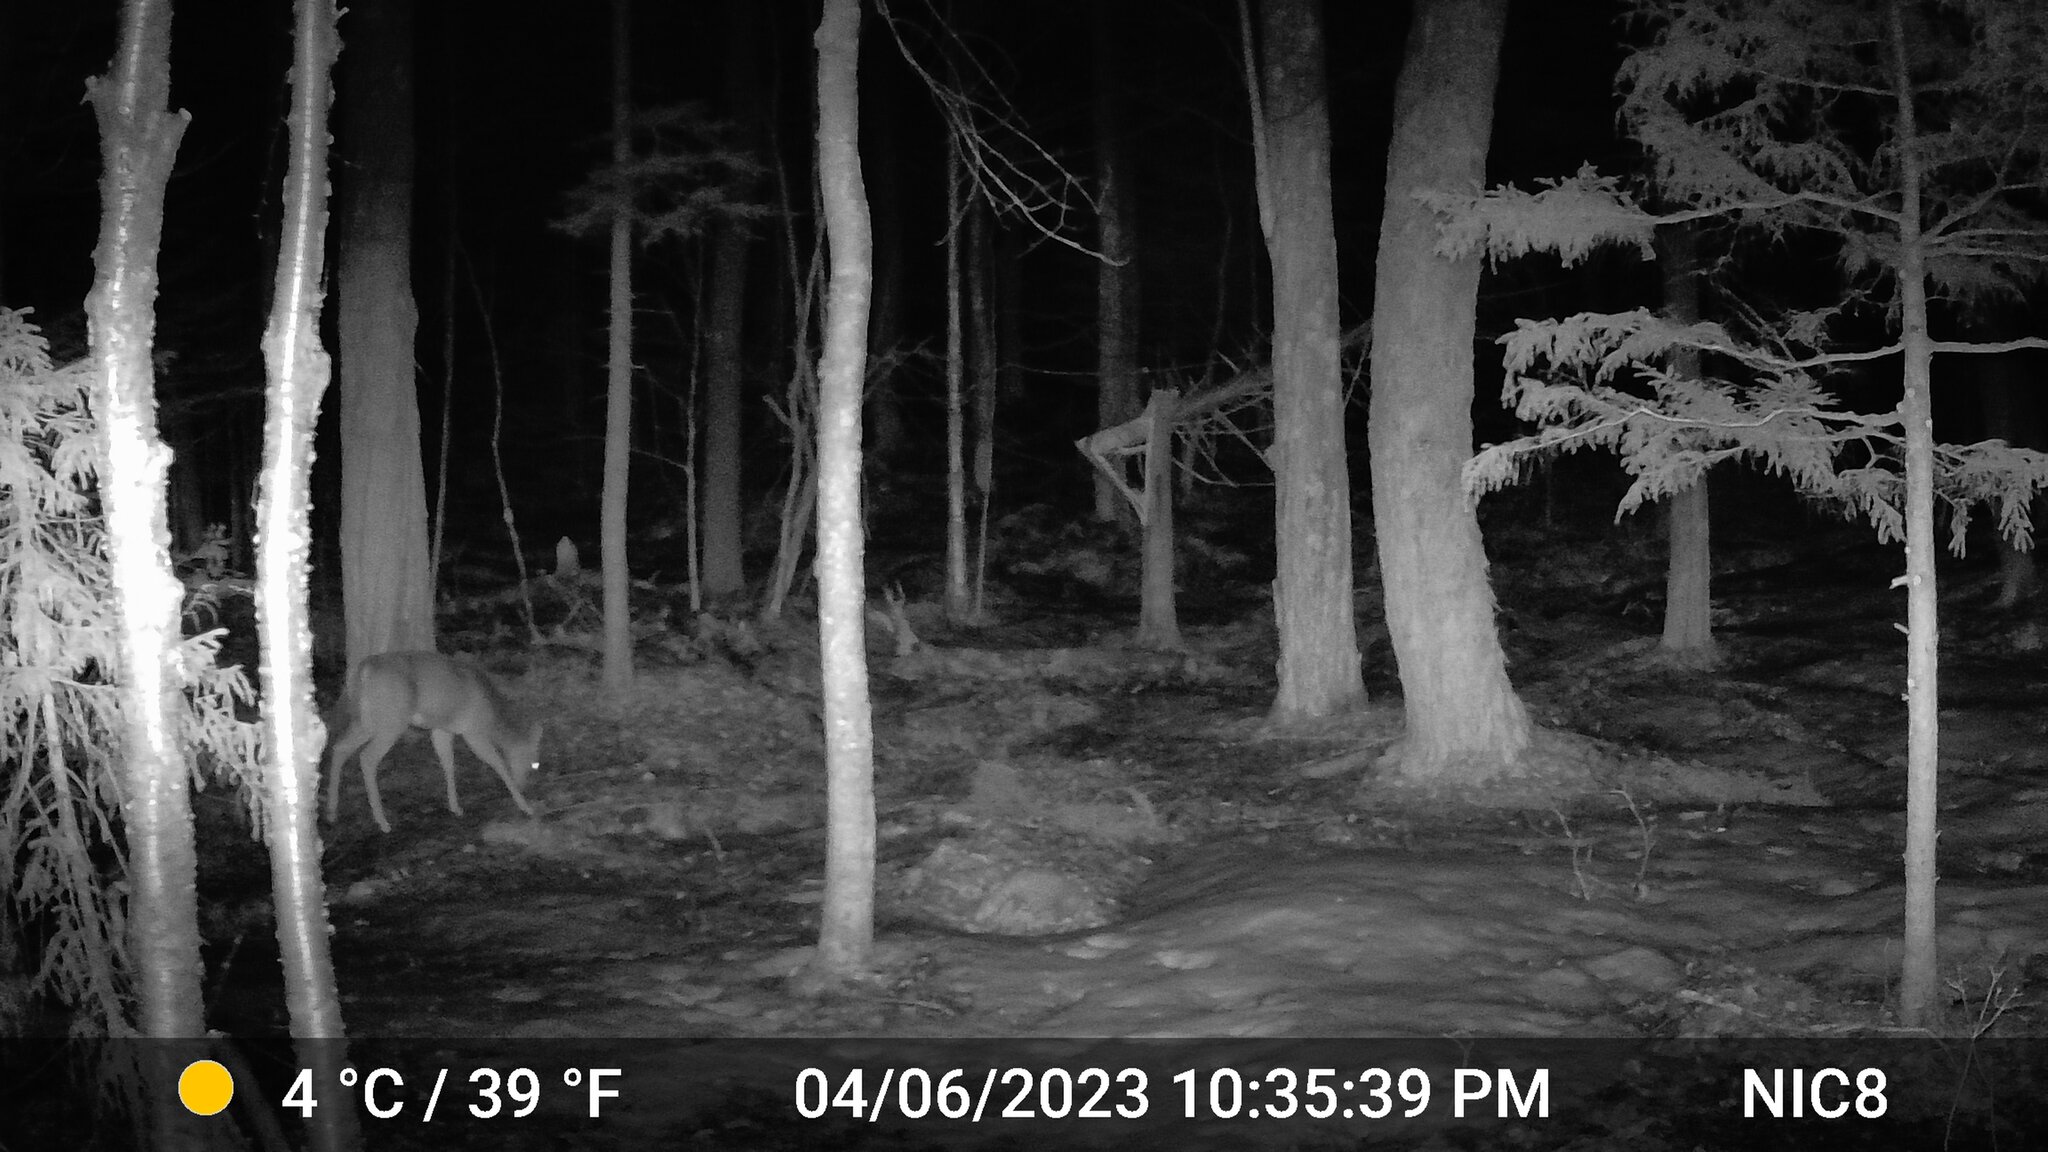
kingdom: Animalia
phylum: Chordata
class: Mammalia
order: Artiodactyla
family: Cervidae
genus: Odocoileus
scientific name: Odocoileus virginianus
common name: White-tailed deer
